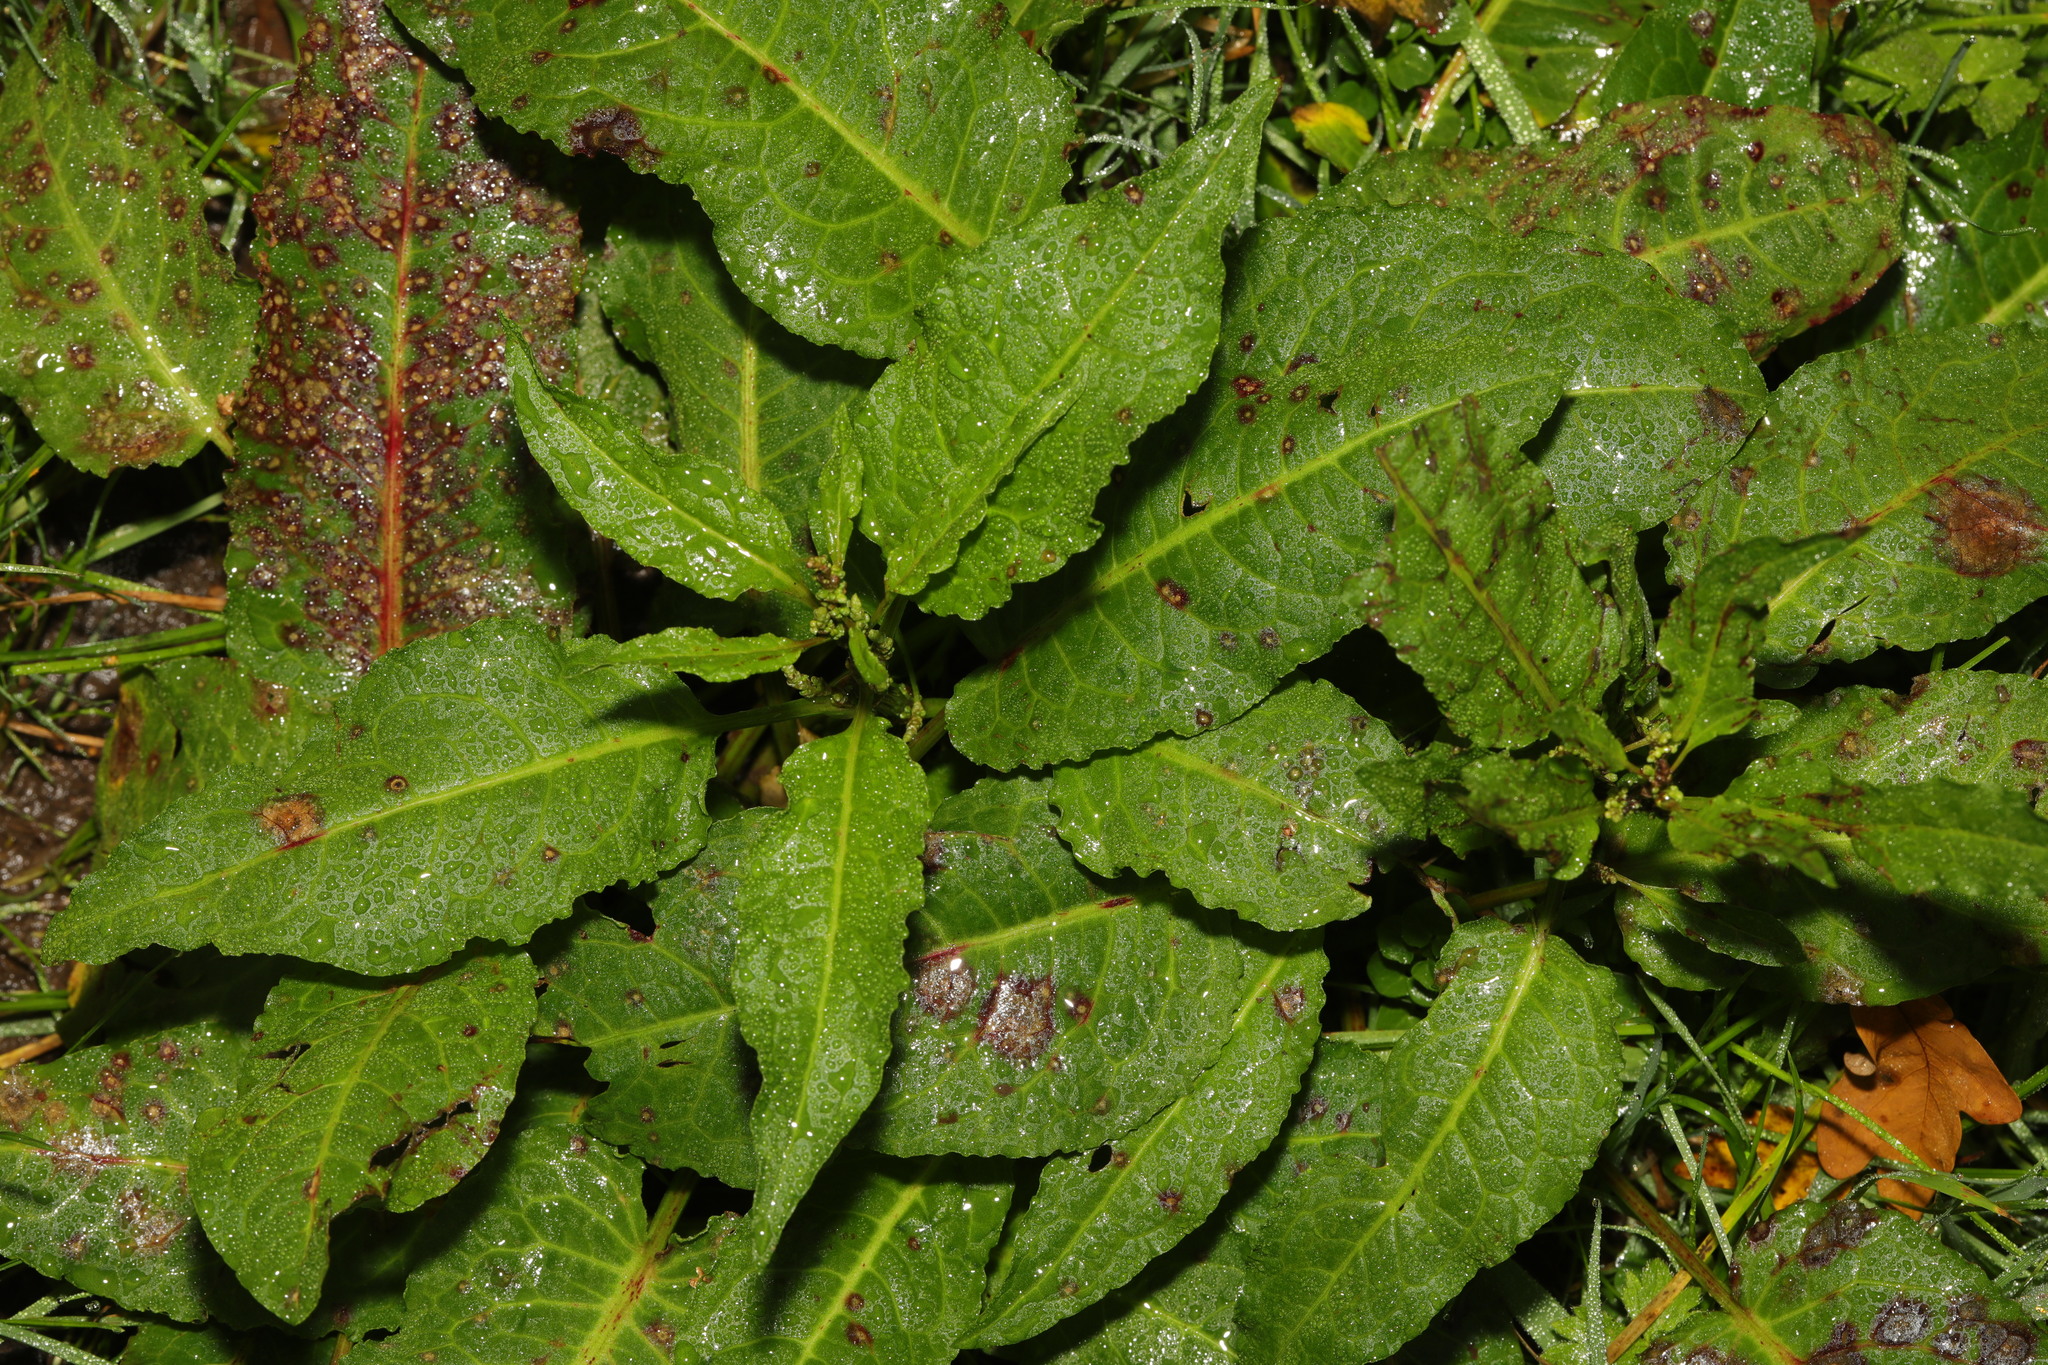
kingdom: Plantae
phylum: Tracheophyta
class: Magnoliopsida
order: Caryophyllales
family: Polygonaceae
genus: Rumex
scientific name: Rumex obtusifolius
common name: Bitter dock
